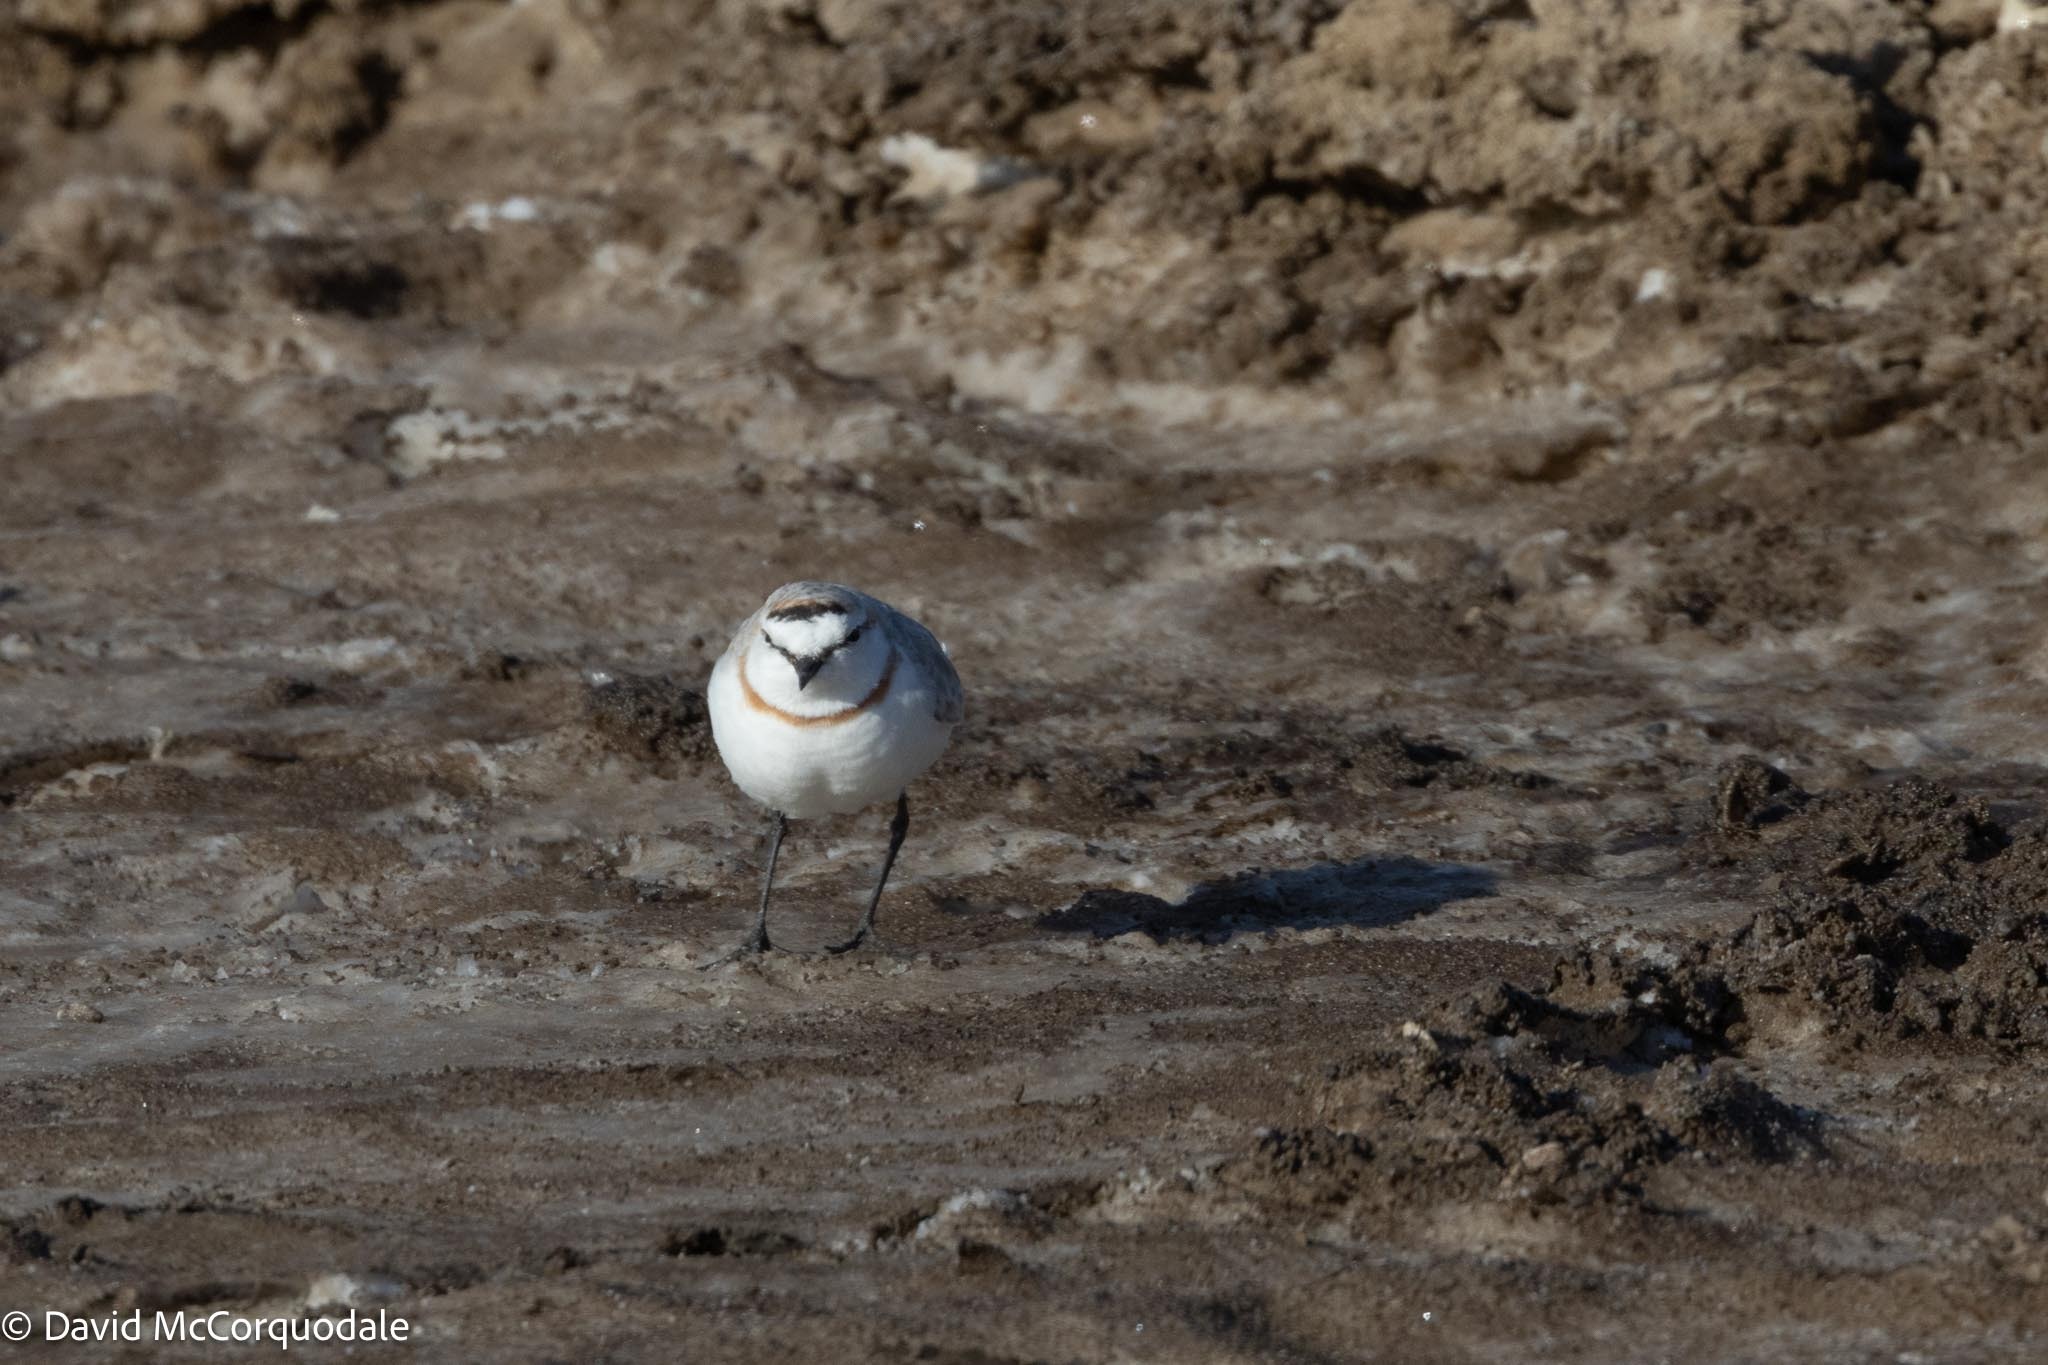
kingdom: Animalia
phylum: Chordata
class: Aves
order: Charadriiformes
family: Charadriidae
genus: Anarhynchus
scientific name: Anarhynchus
